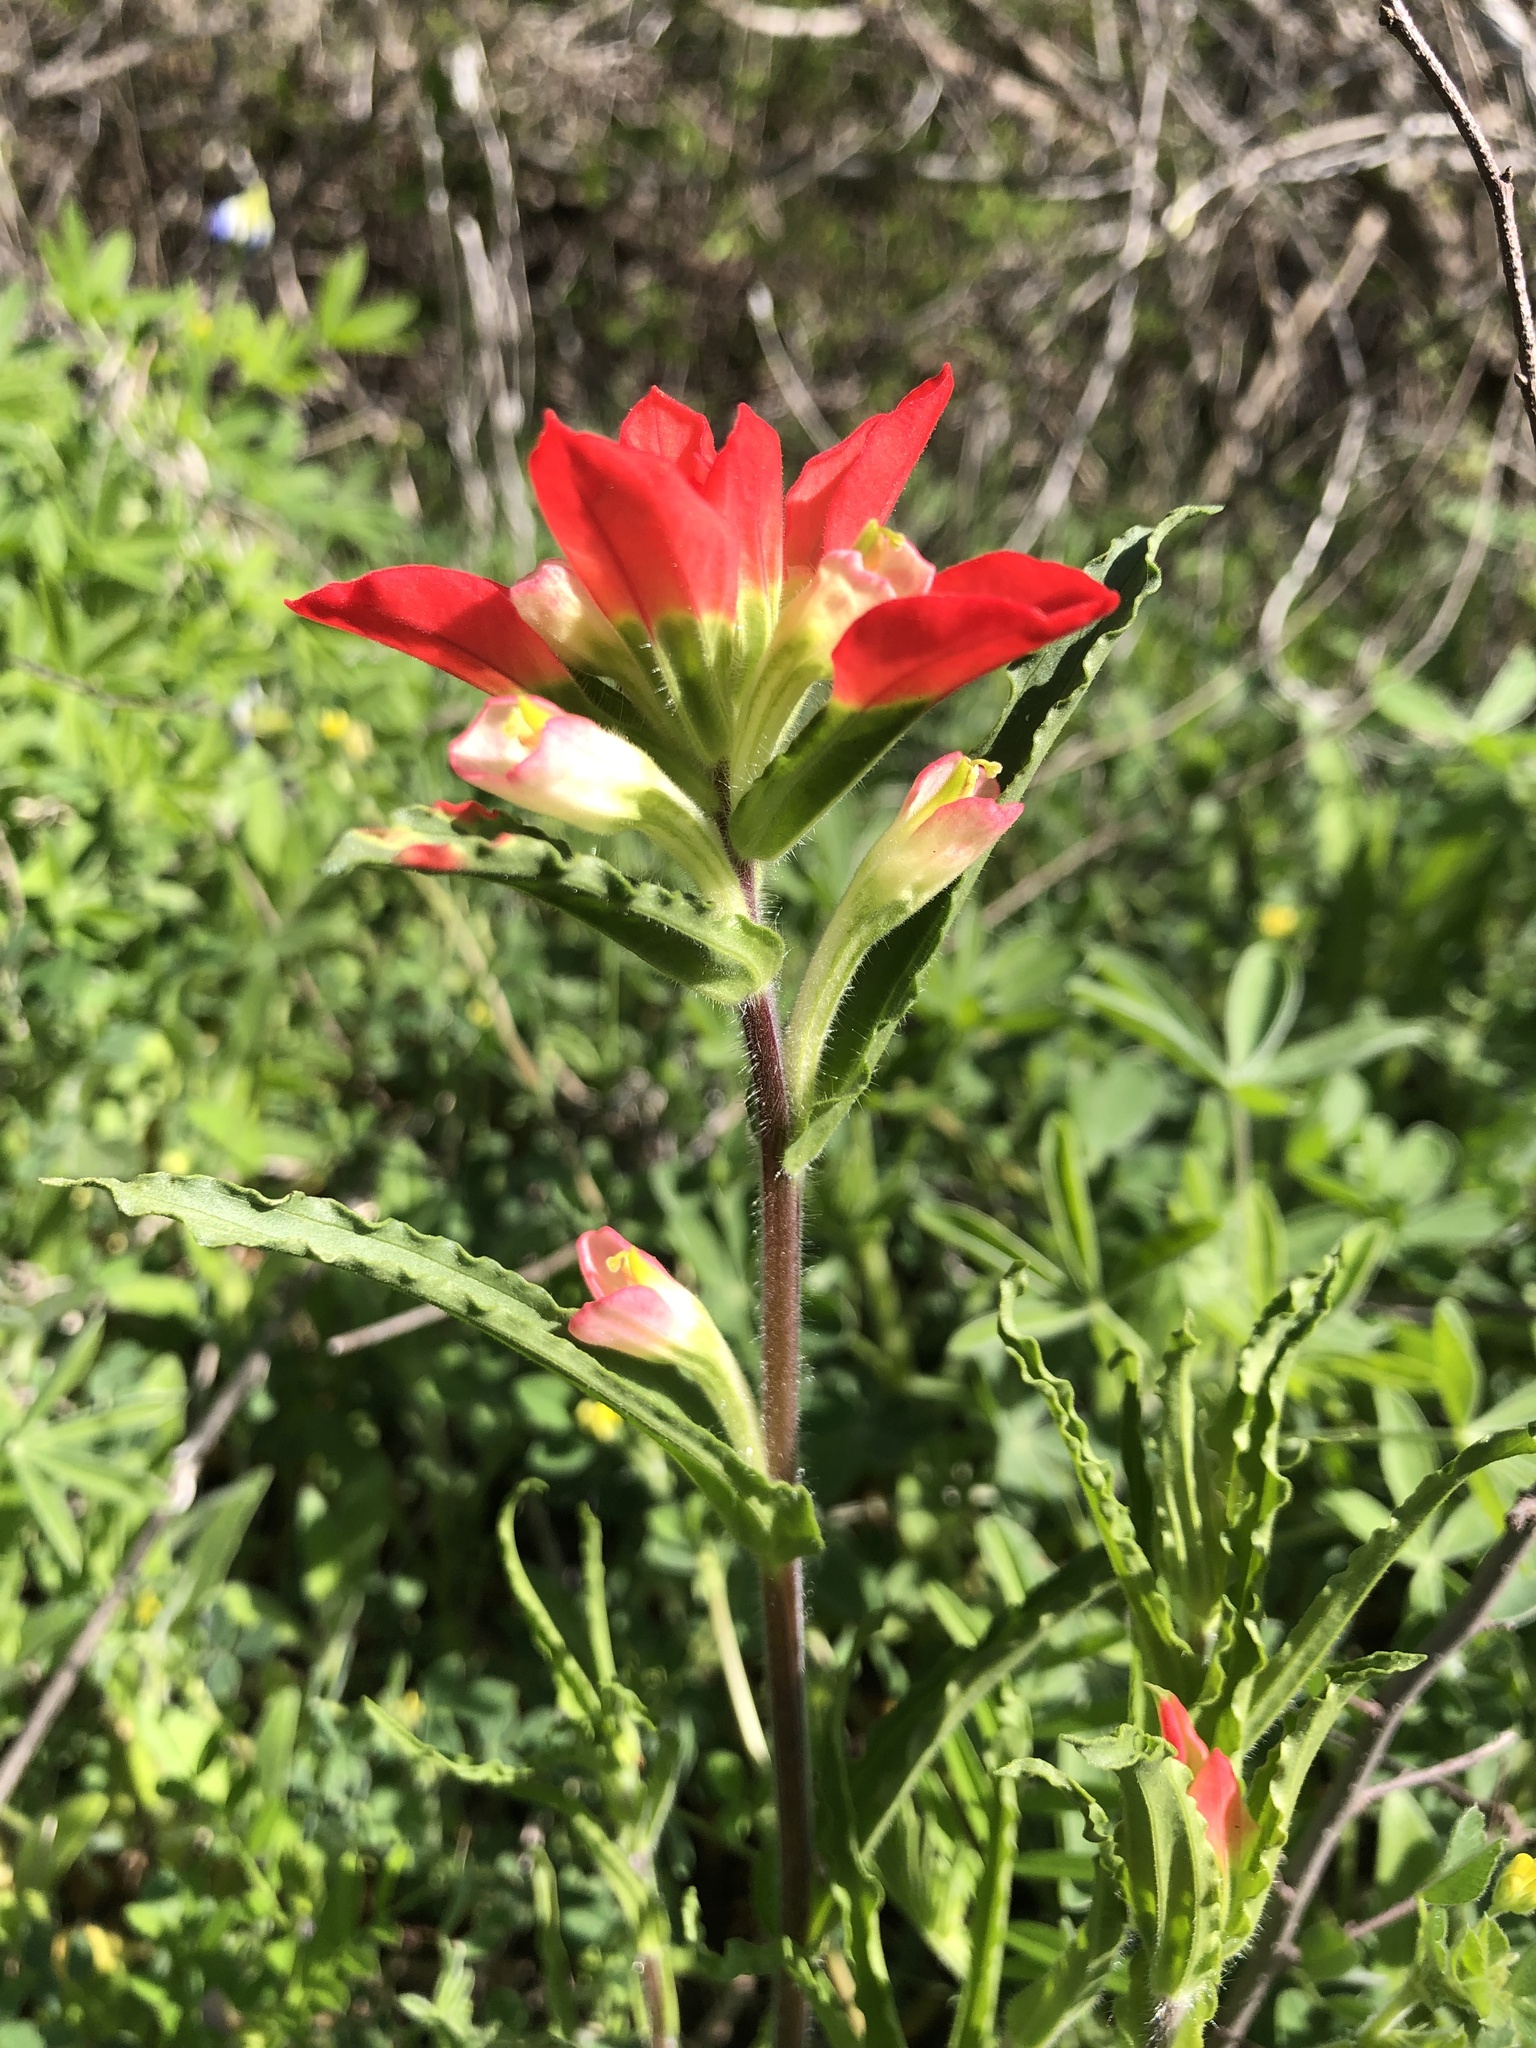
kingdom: Plantae
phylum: Tracheophyta
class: Magnoliopsida
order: Lamiales
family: Orobanchaceae
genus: Castilleja
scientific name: Castilleja indivisa
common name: Texas paintbrush
